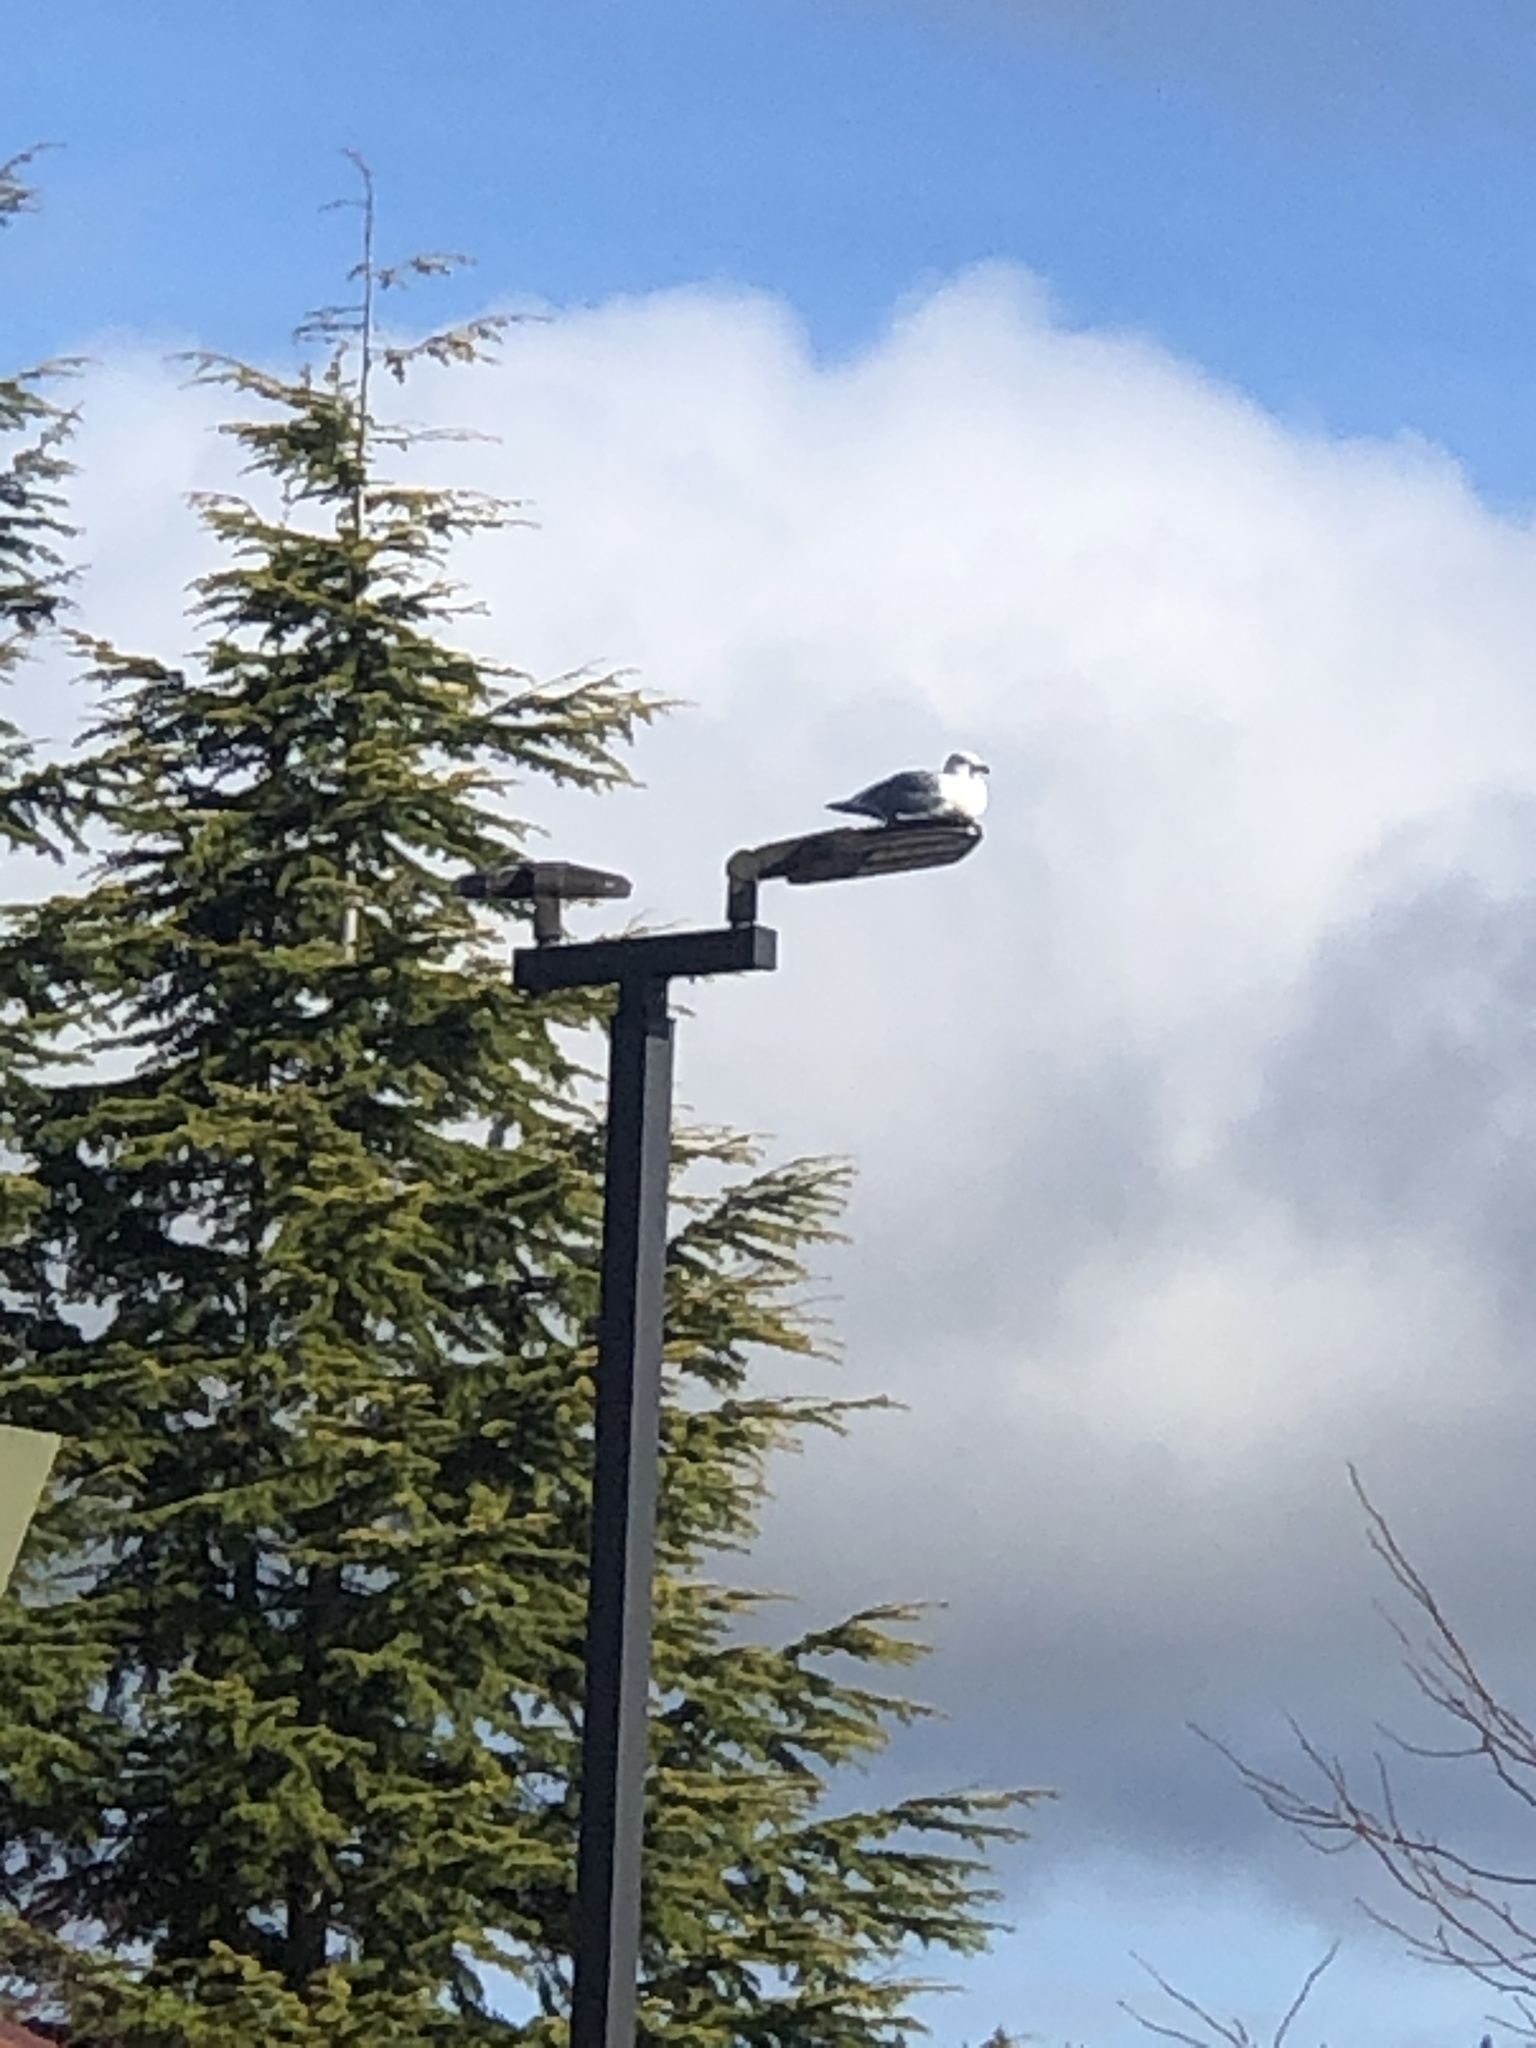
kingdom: Animalia
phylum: Chordata
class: Aves
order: Charadriiformes
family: Laridae
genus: Larus
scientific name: Larus
